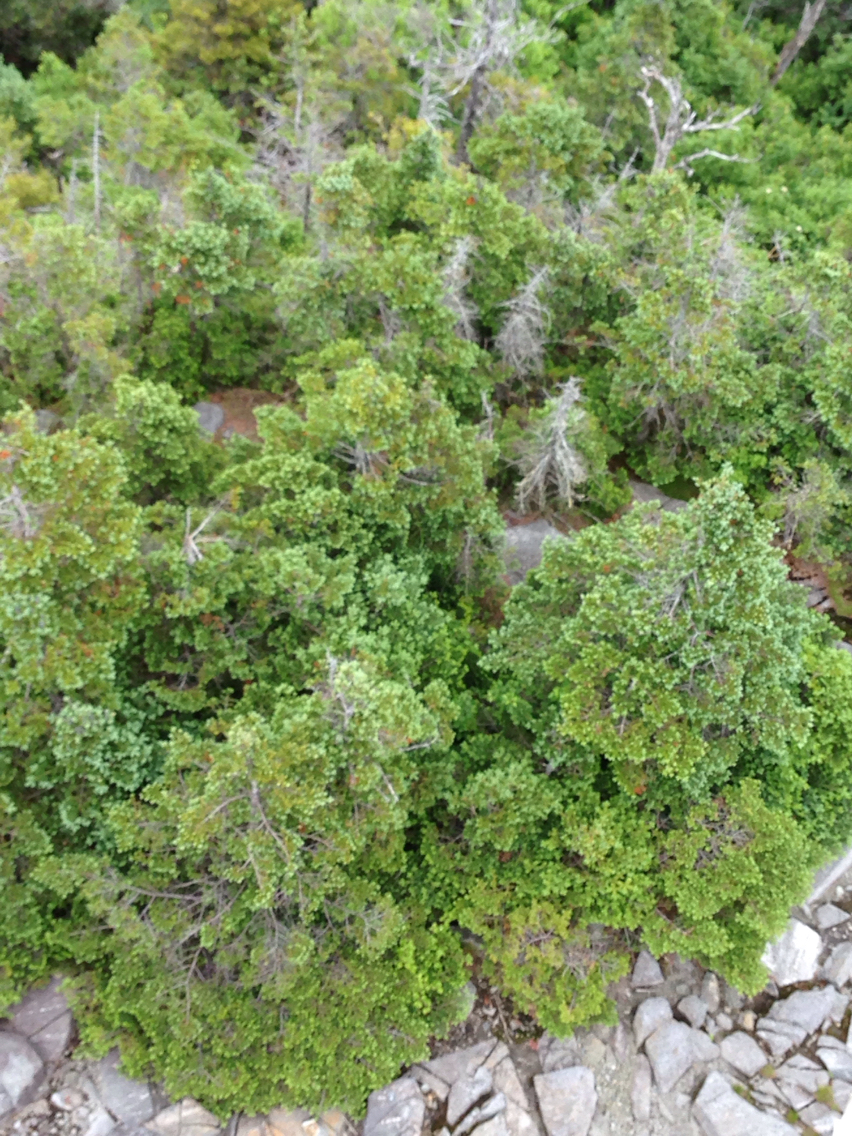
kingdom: Plantae
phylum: Tracheophyta
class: Pinopsida
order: Pinales
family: Pinaceae
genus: Abies
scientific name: Abies balsamea
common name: Balsam fir
